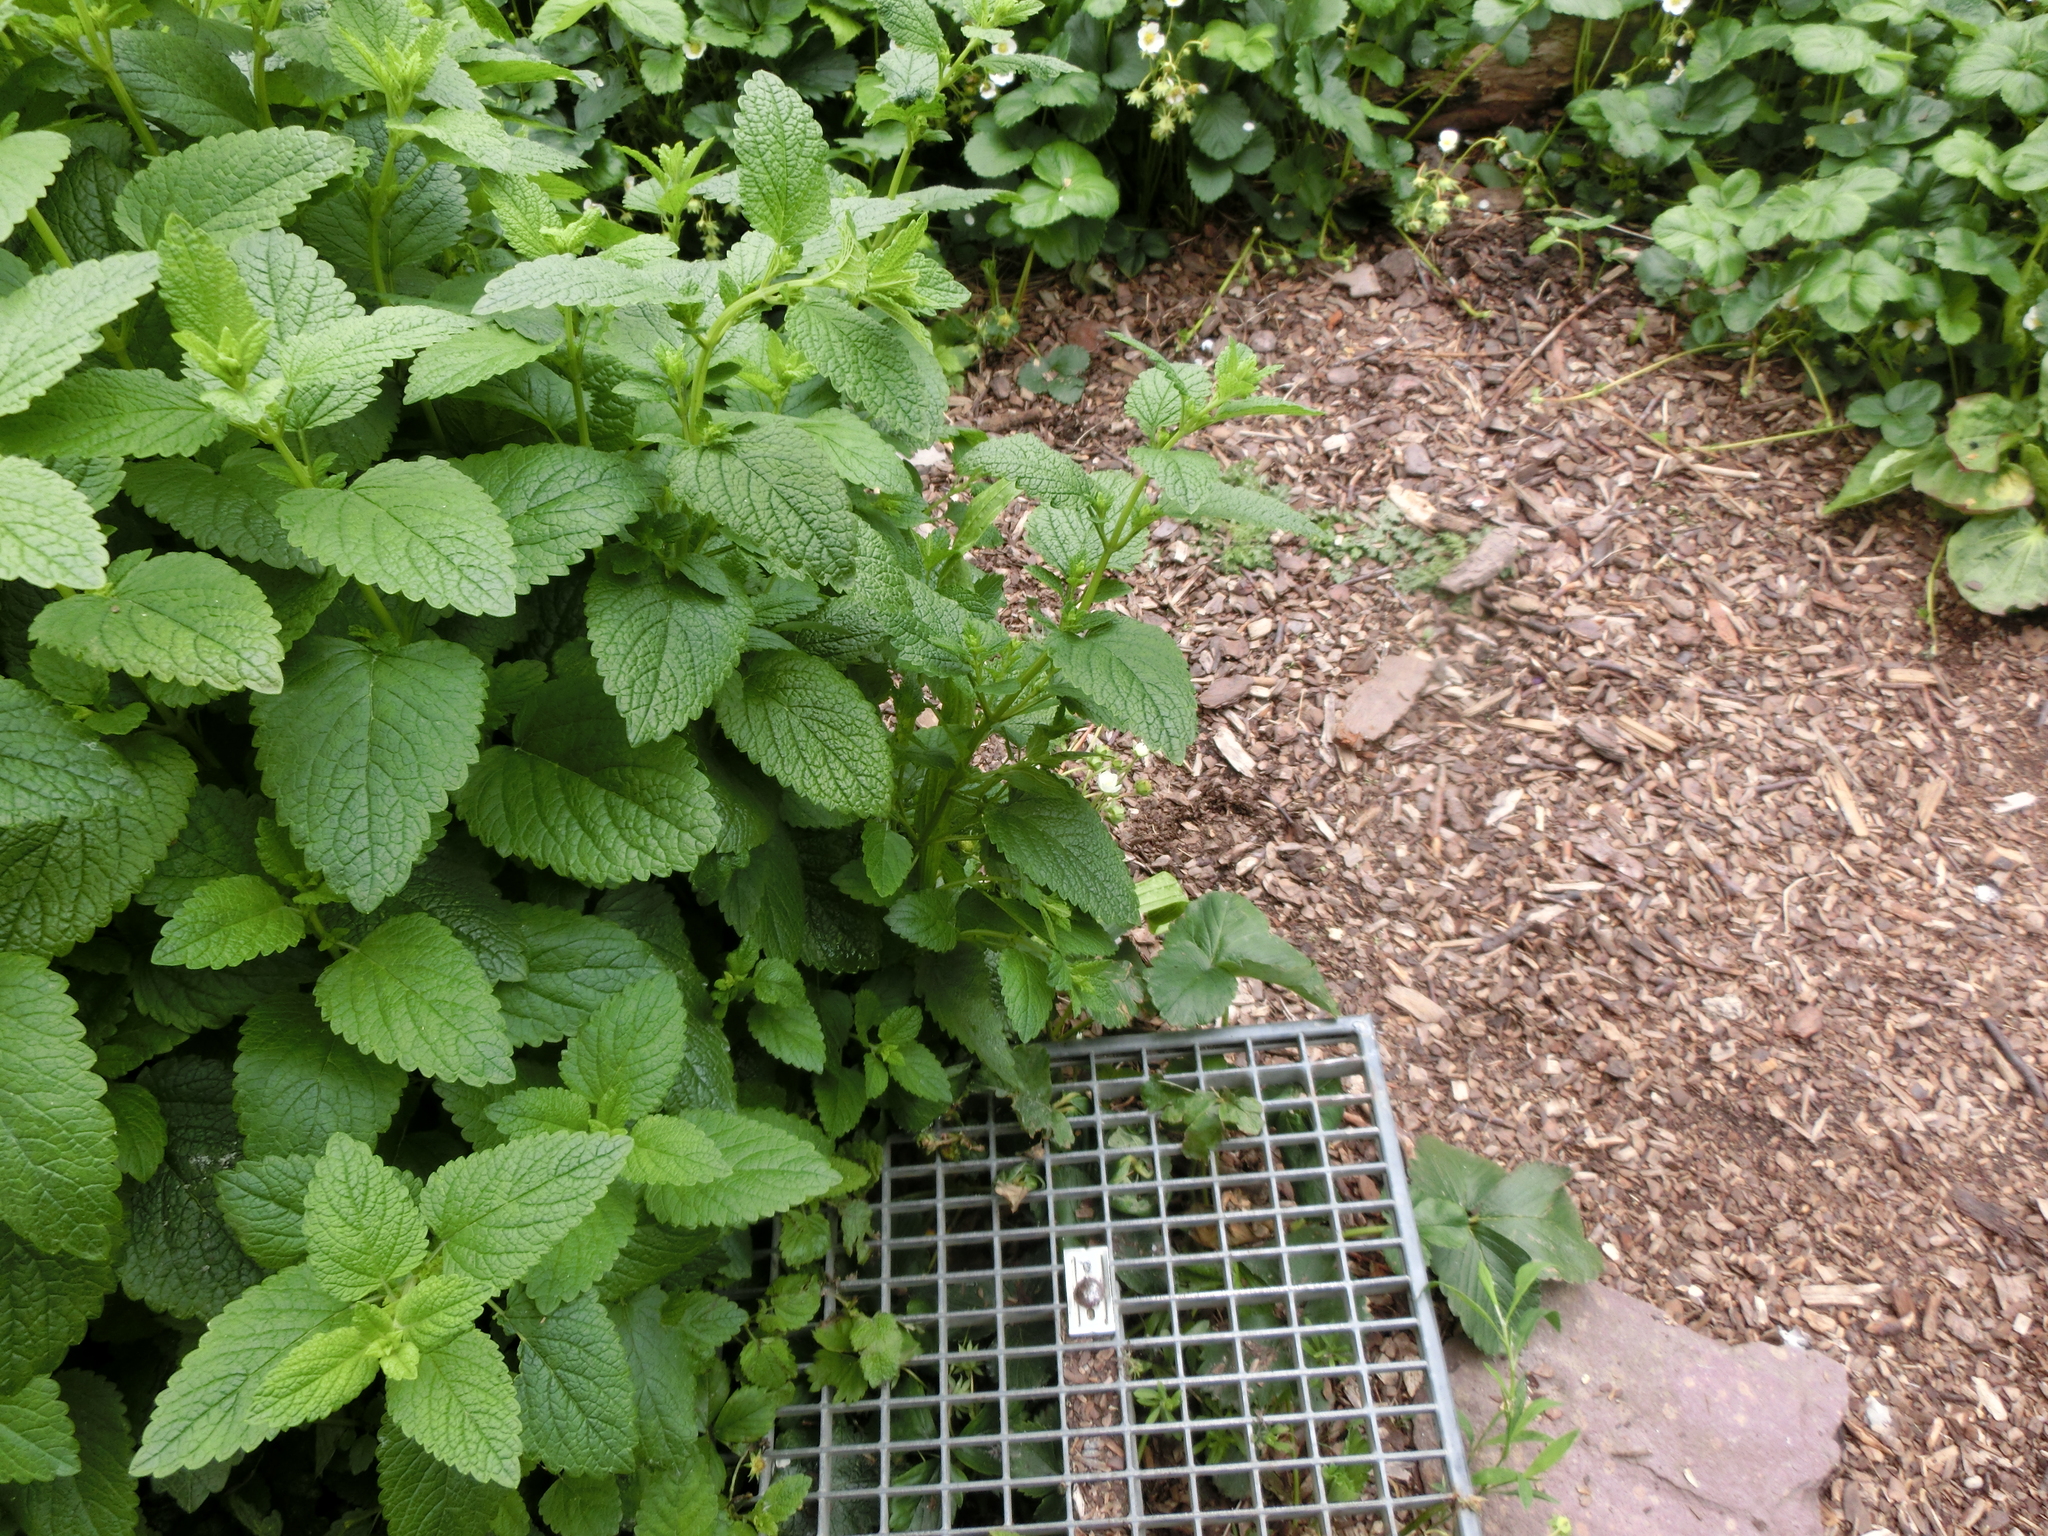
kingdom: Plantae
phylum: Tracheophyta
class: Magnoliopsida
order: Lamiales
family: Lamiaceae
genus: Melissa
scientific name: Melissa officinalis
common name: Balm
